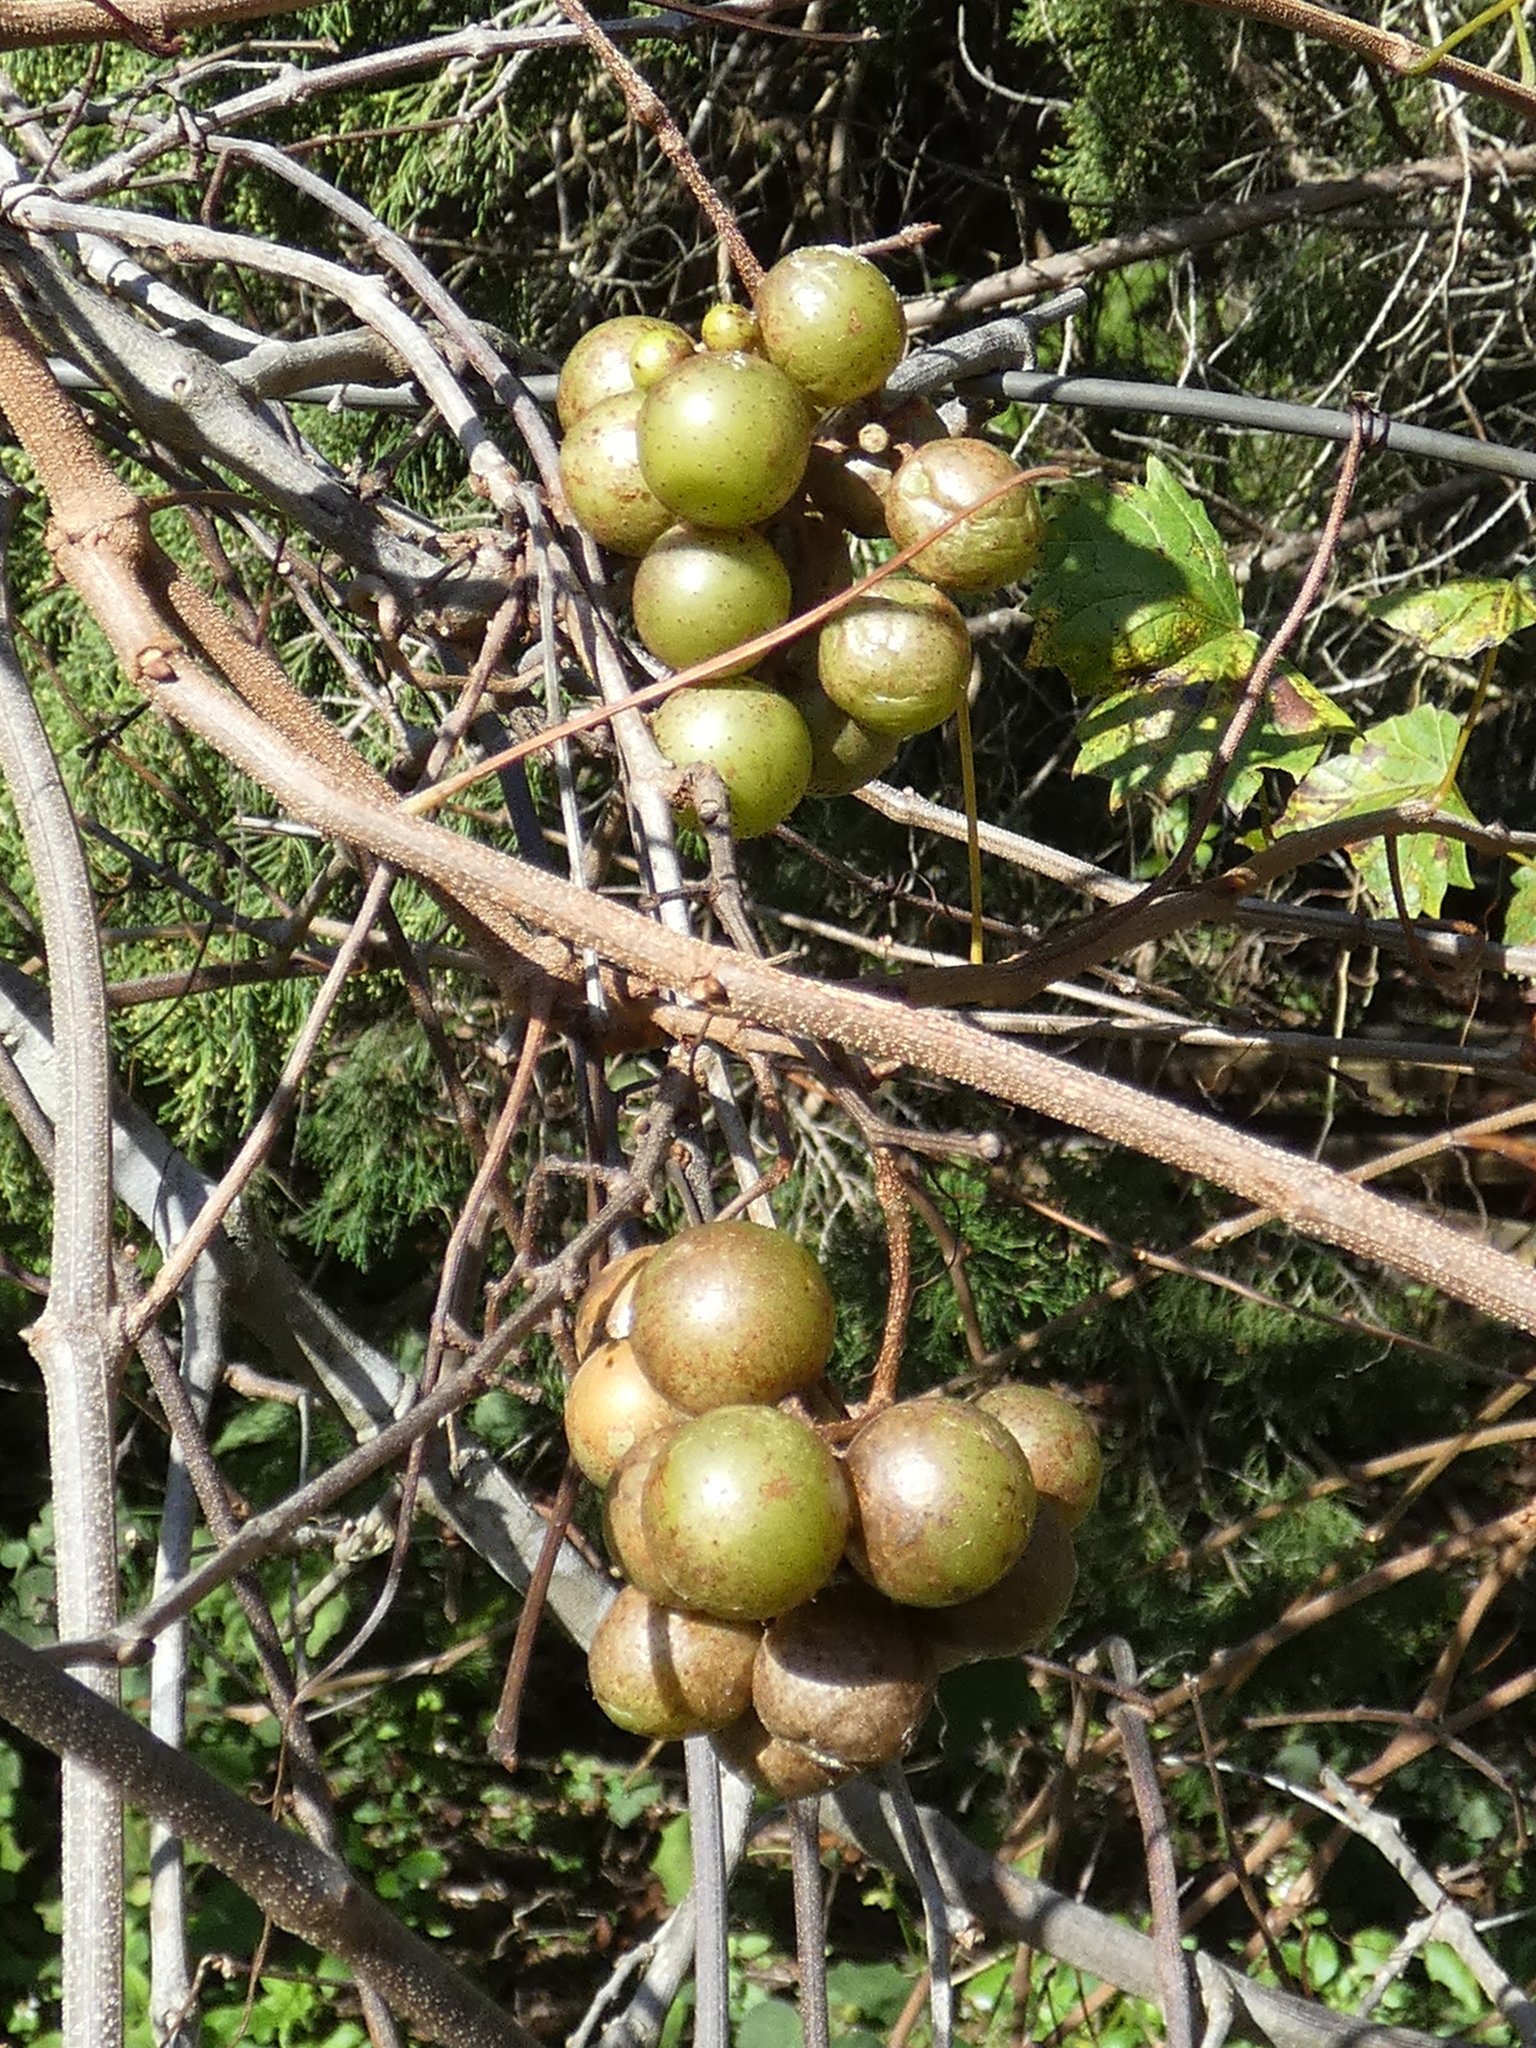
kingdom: Plantae
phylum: Tracheophyta
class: Magnoliopsida
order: Vitales
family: Vitaceae
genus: Vitis
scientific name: Vitis rotundifolia
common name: Muscadine grape
